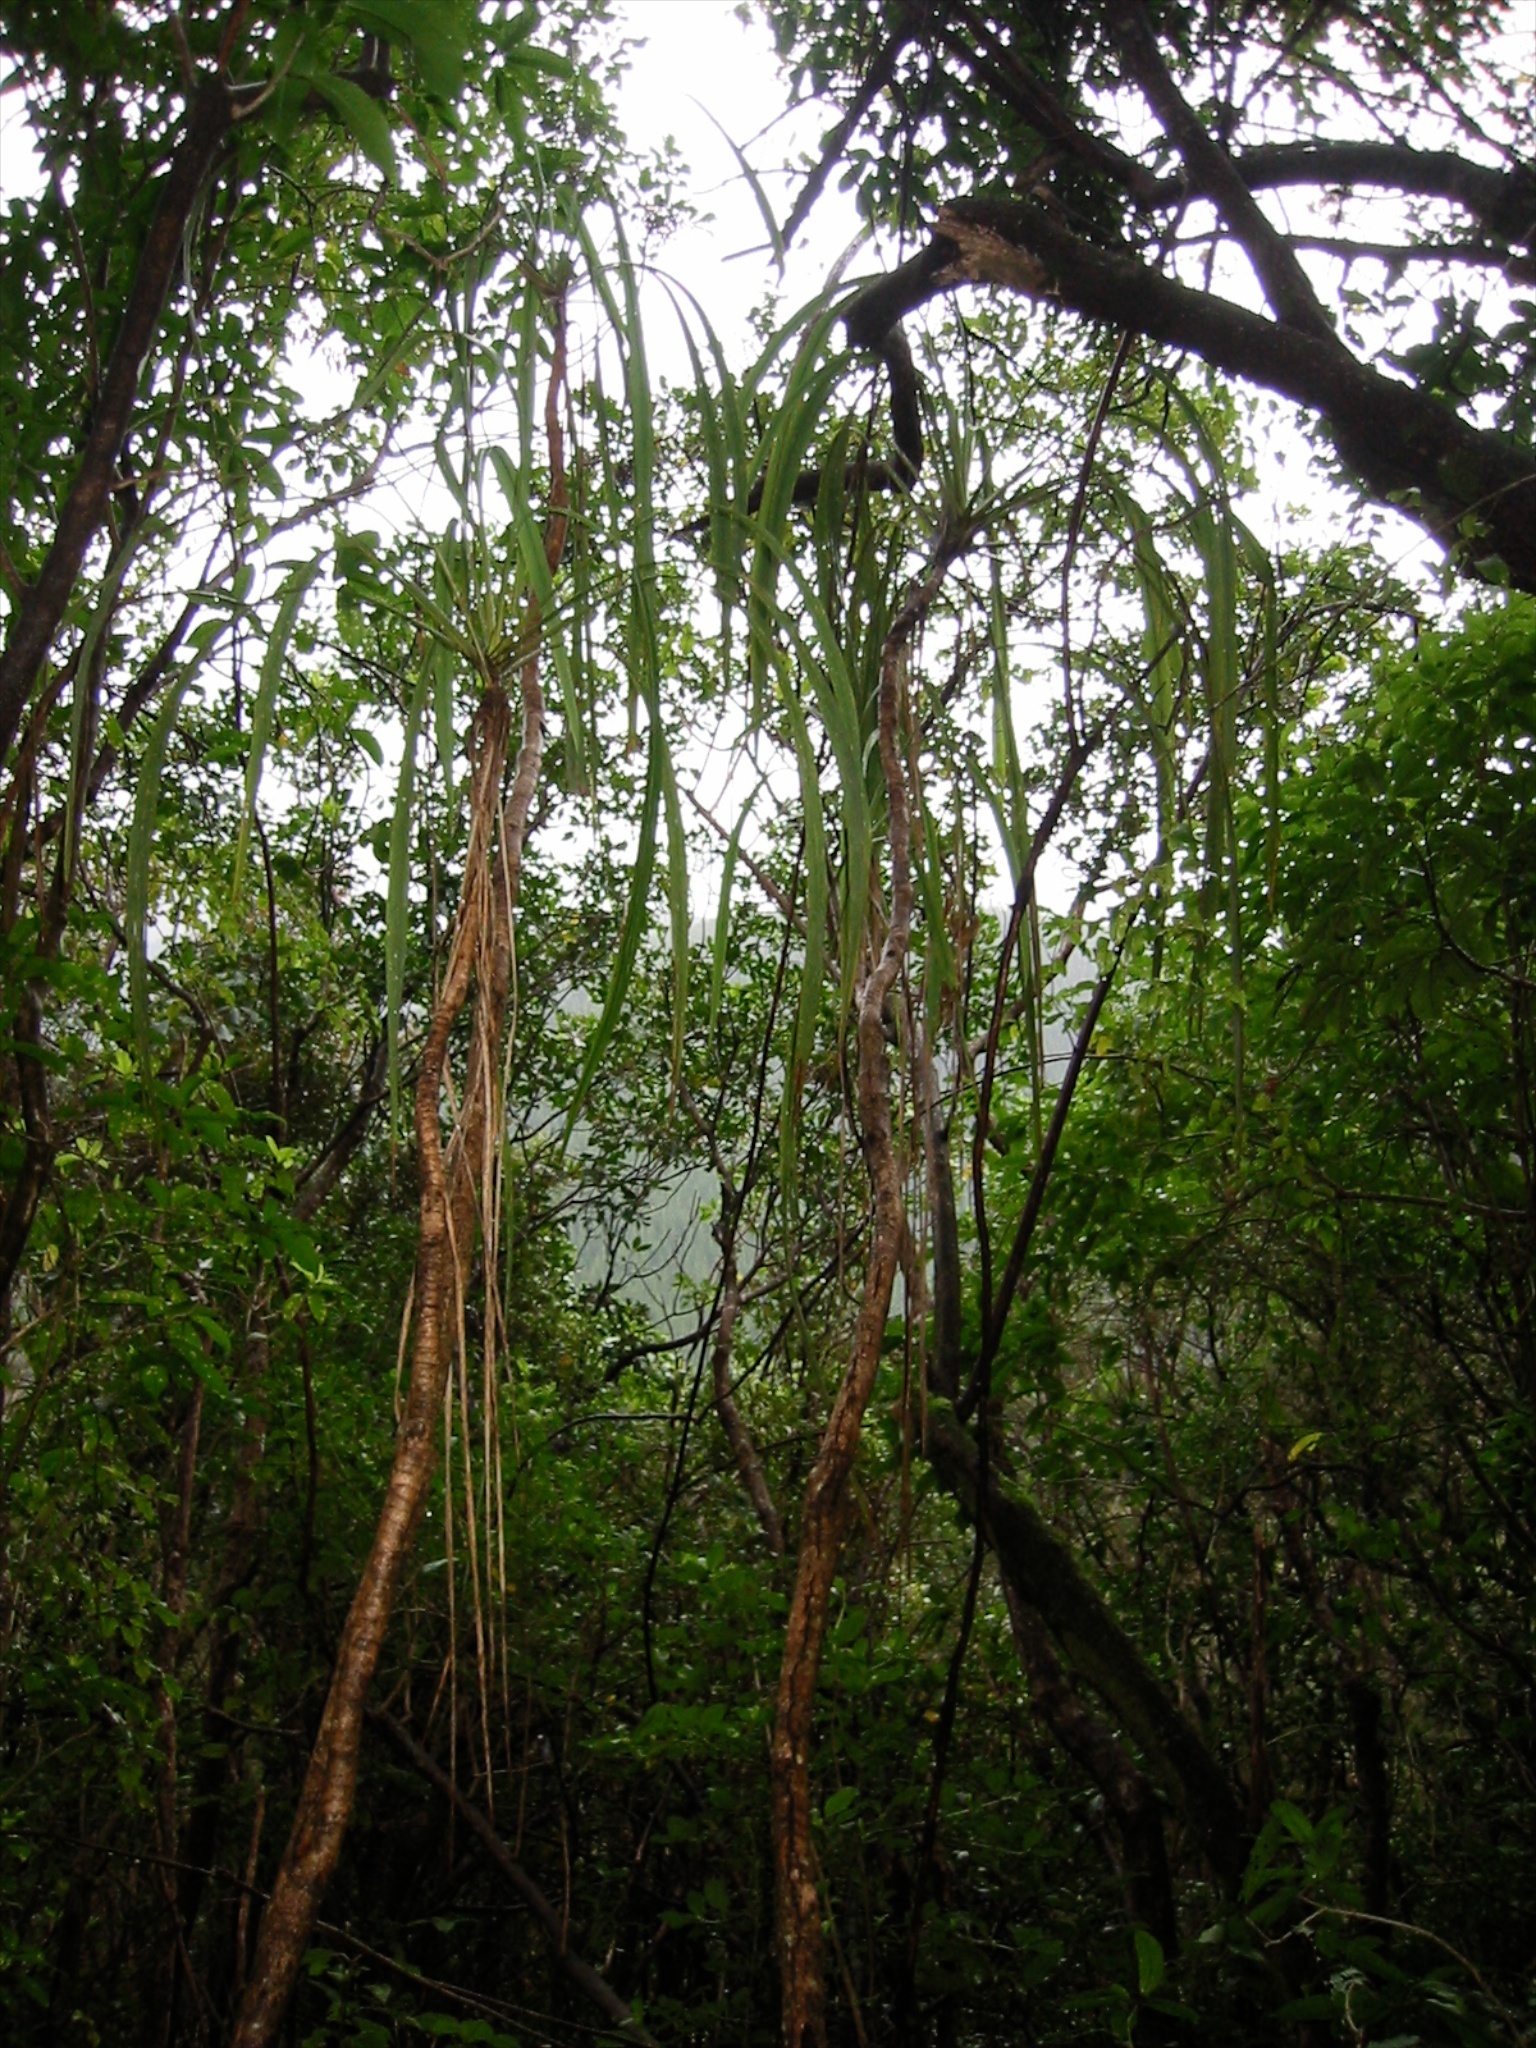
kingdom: Plantae
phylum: Tracheophyta
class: Liliopsida
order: Asparagales
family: Asparagaceae
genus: Cordyline
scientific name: Cordyline banksii
